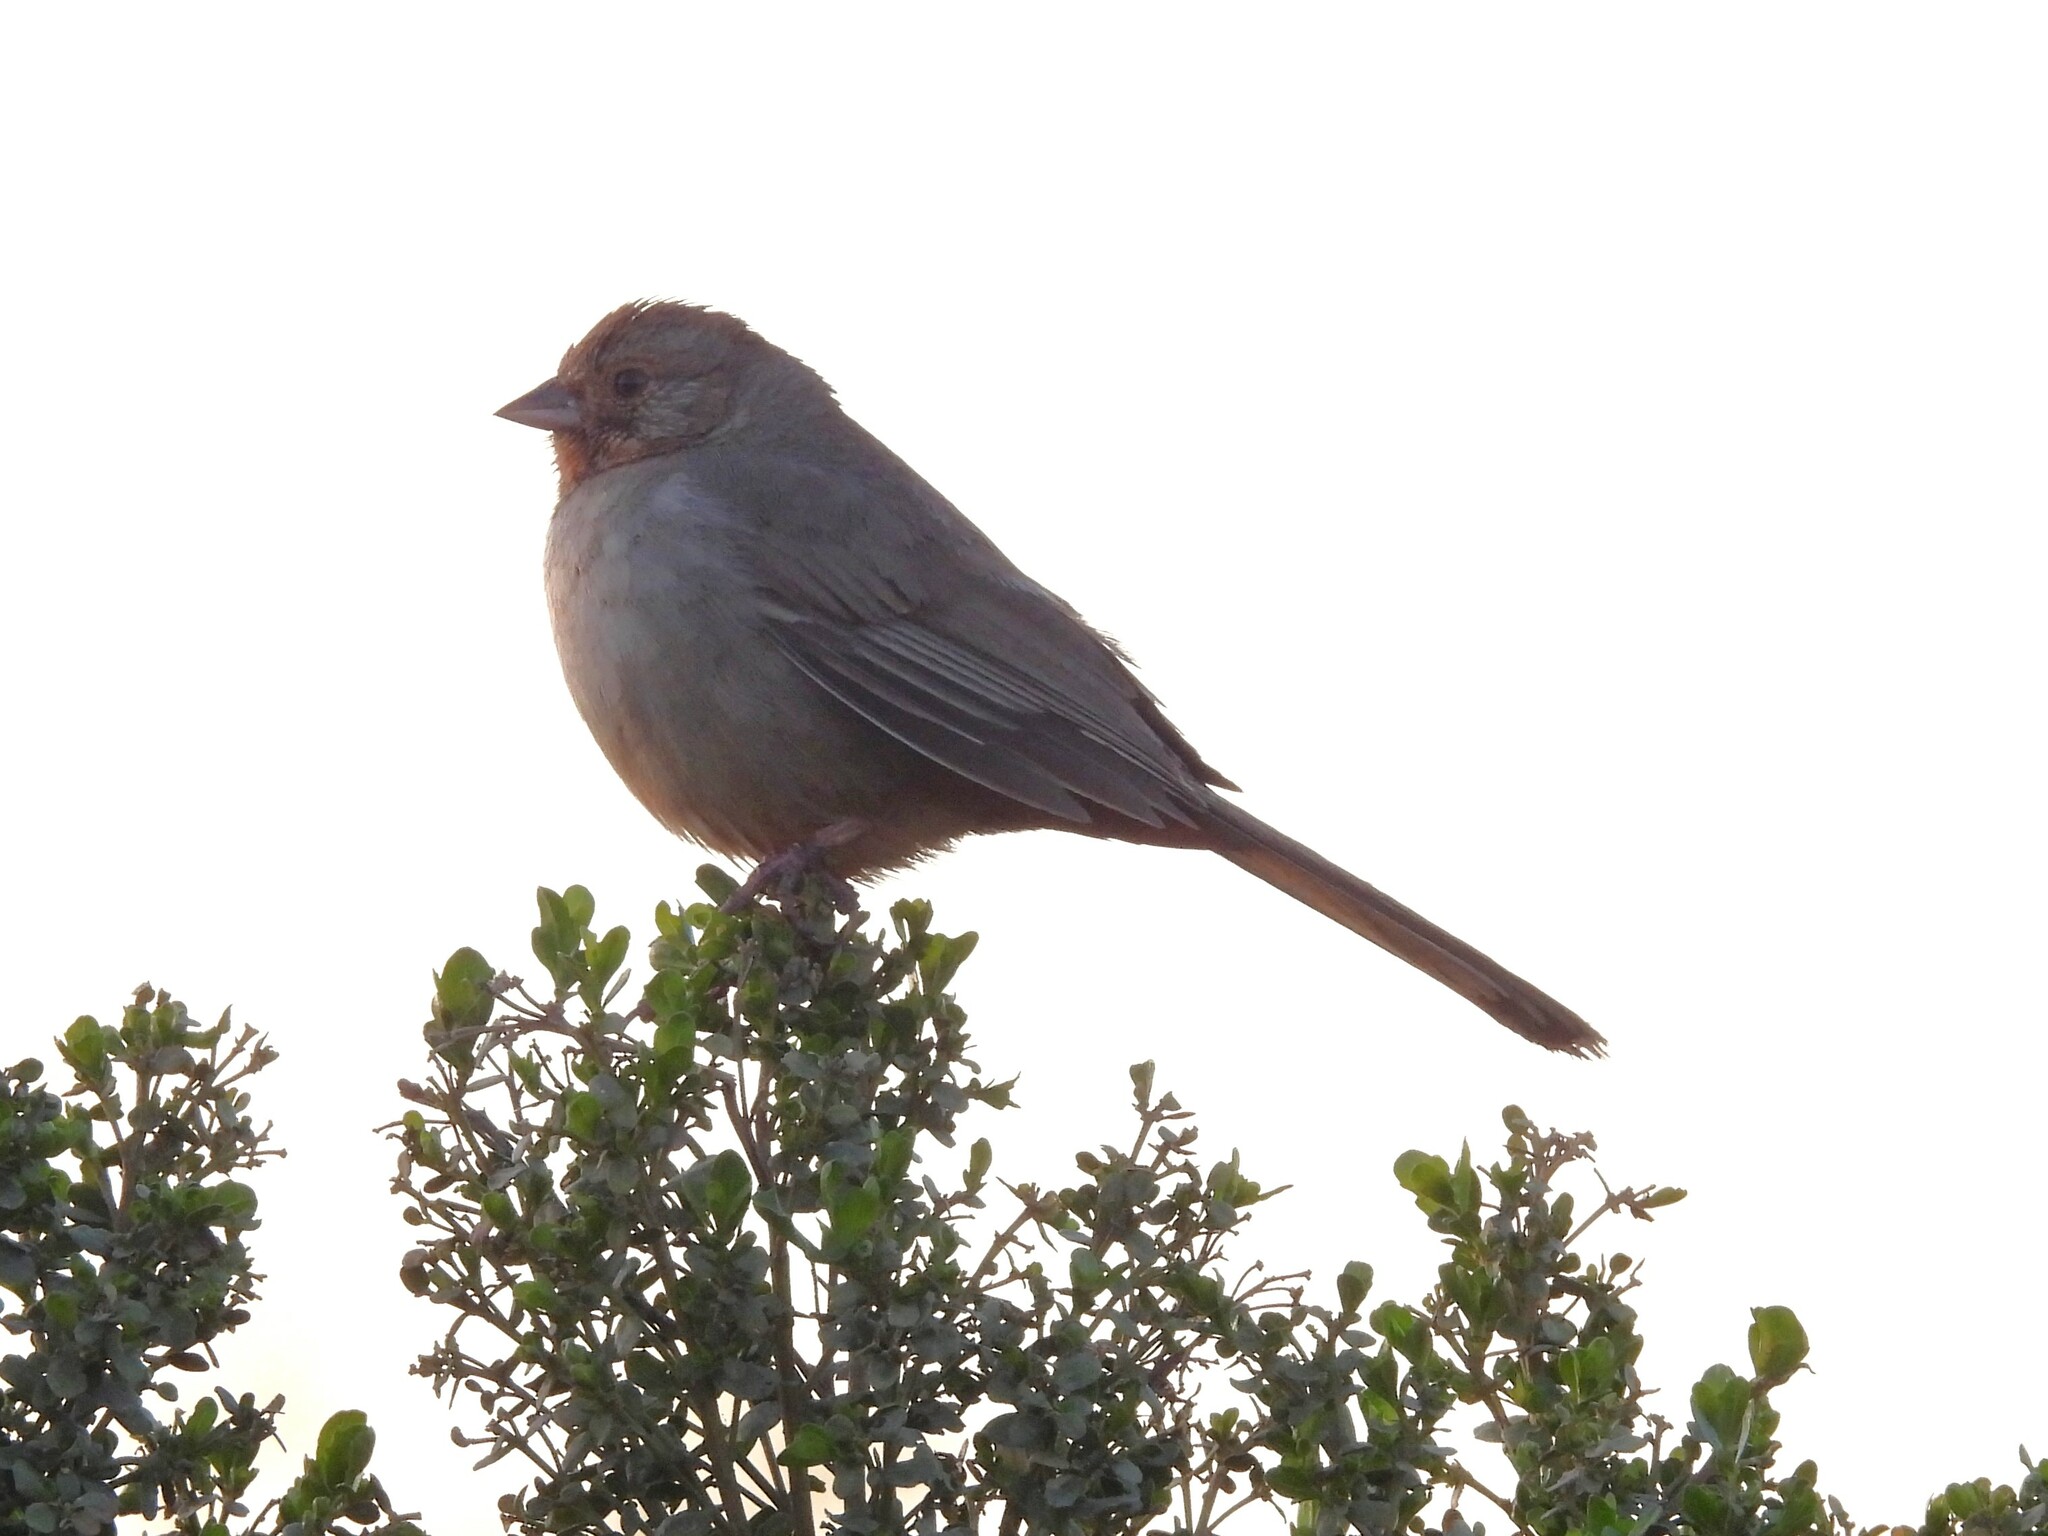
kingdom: Animalia
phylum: Chordata
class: Aves
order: Passeriformes
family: Passerellidae
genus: Melozone
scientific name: Melozone crissalis
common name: California towhee
